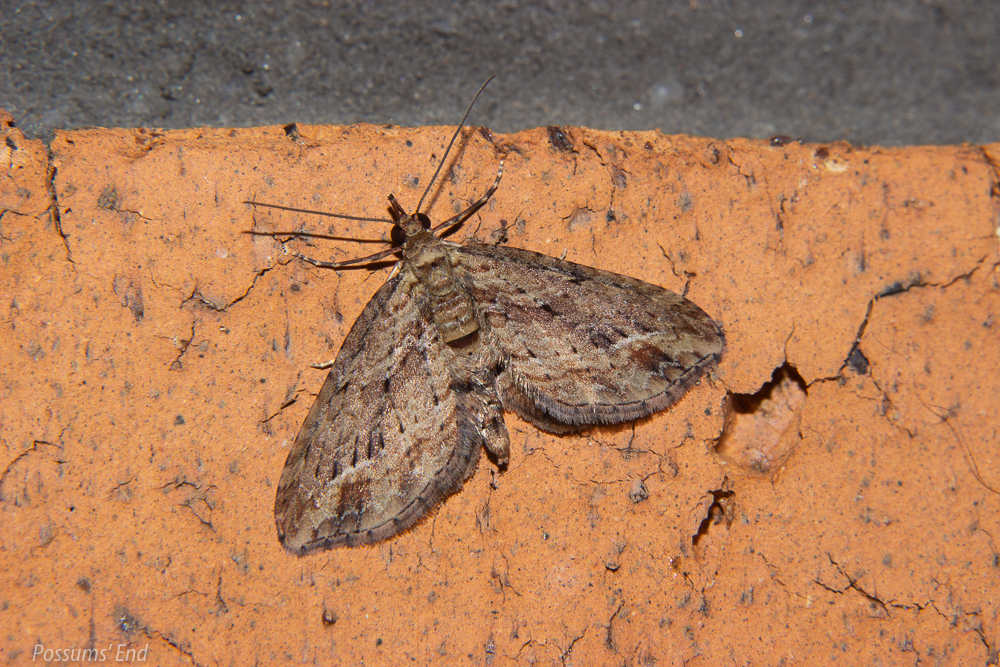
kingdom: Animalia
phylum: Arthropoda
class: Insecta
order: Lepidoptera
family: Geometridae
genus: Chloroclystis
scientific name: Chloroclystis filata
